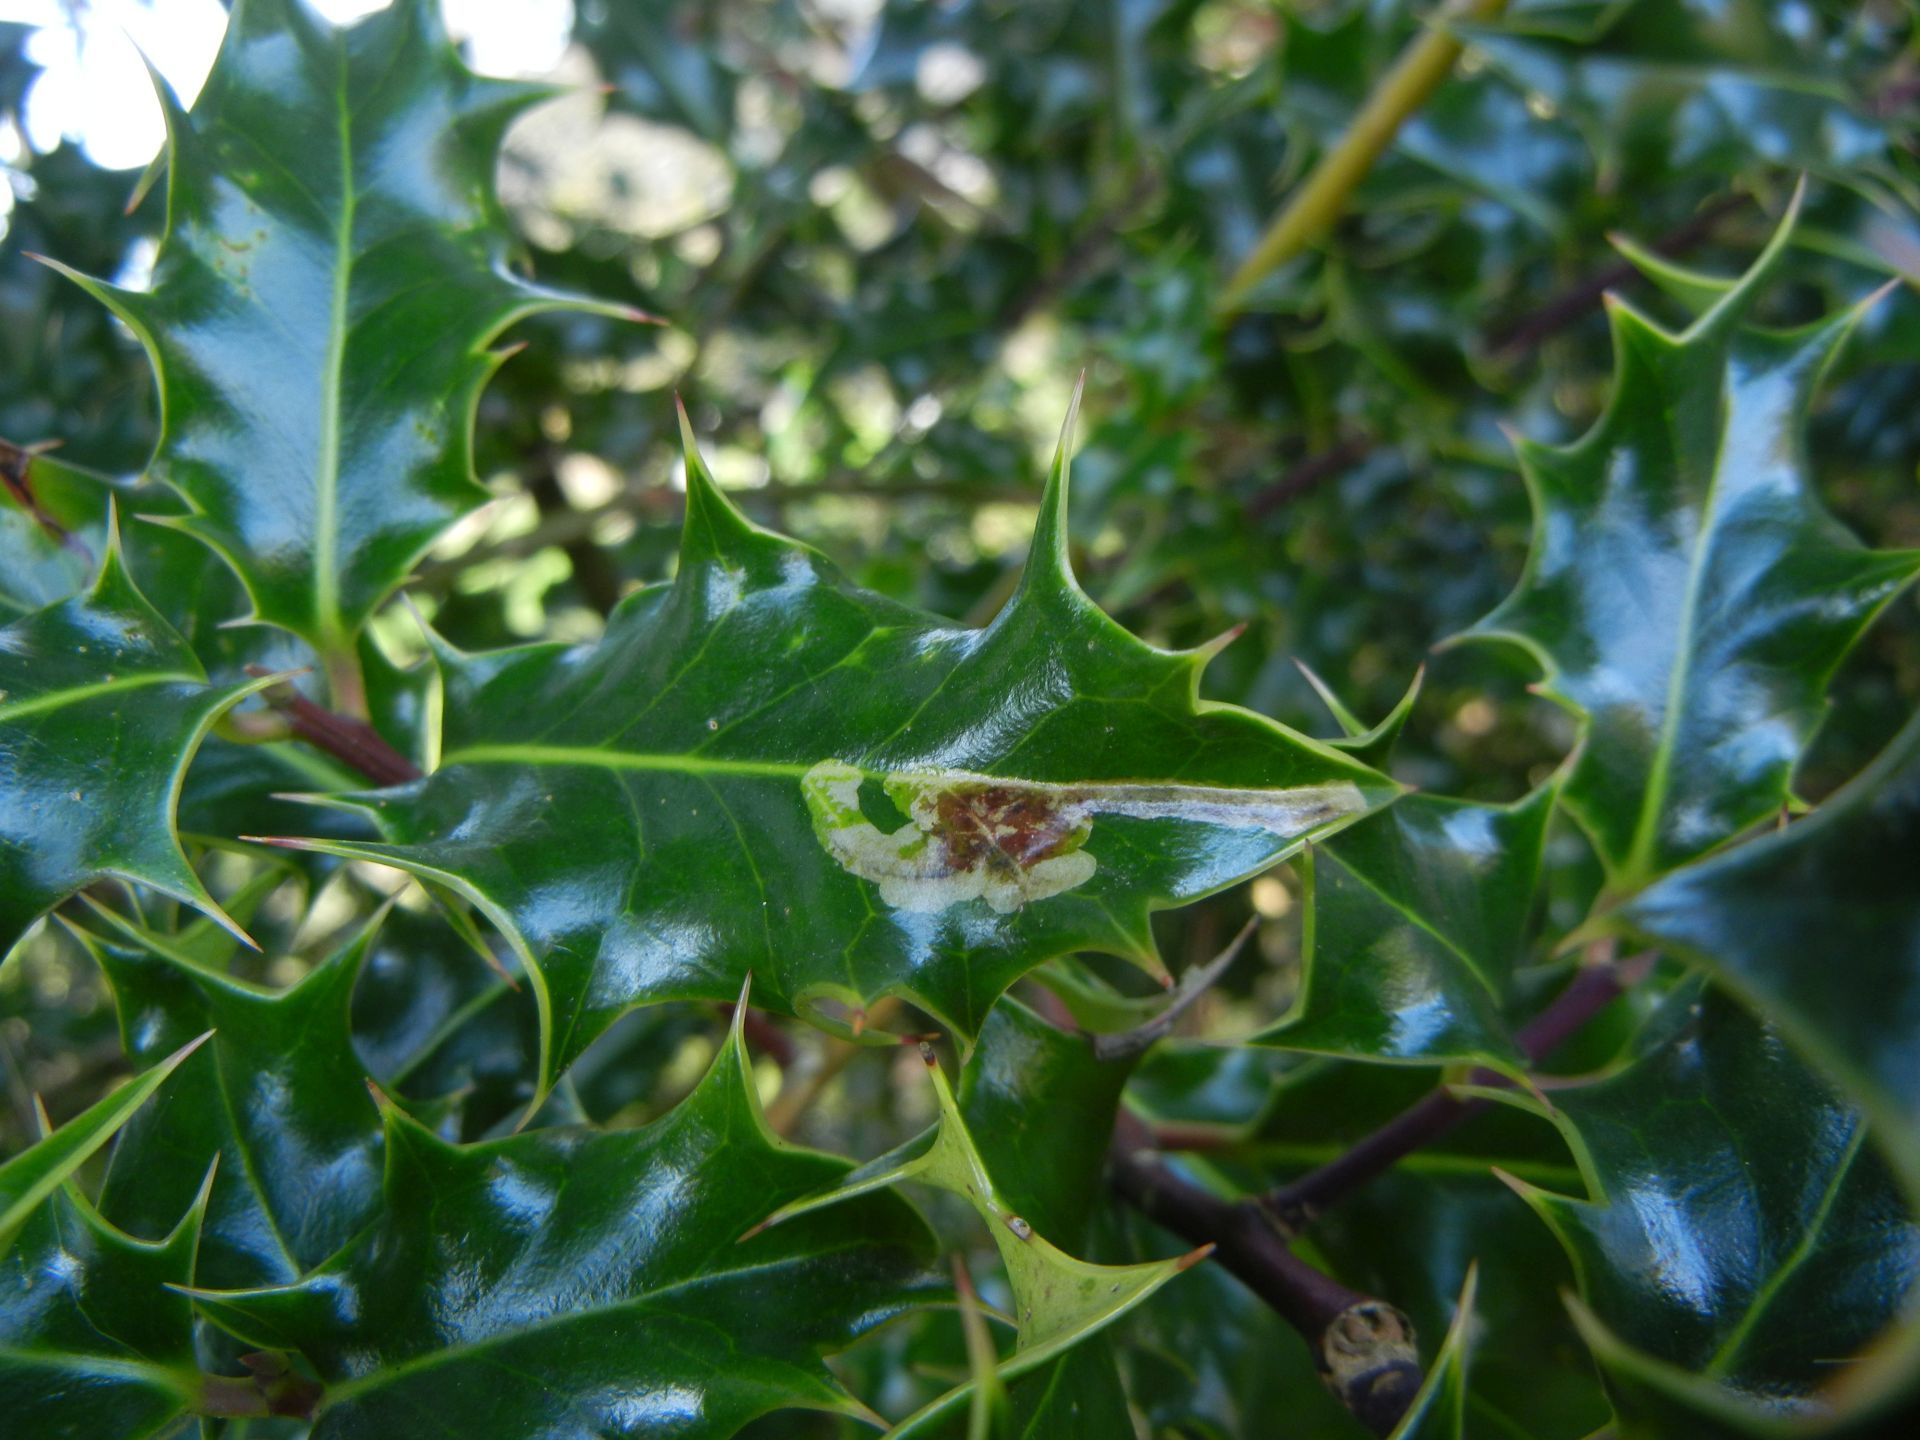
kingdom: Plantae
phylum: Tracheophyta
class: Magnoliopsida
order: Aquifoliales
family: Aquifoliaceae
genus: Ilex
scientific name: Ilex aquifolium
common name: English holly
